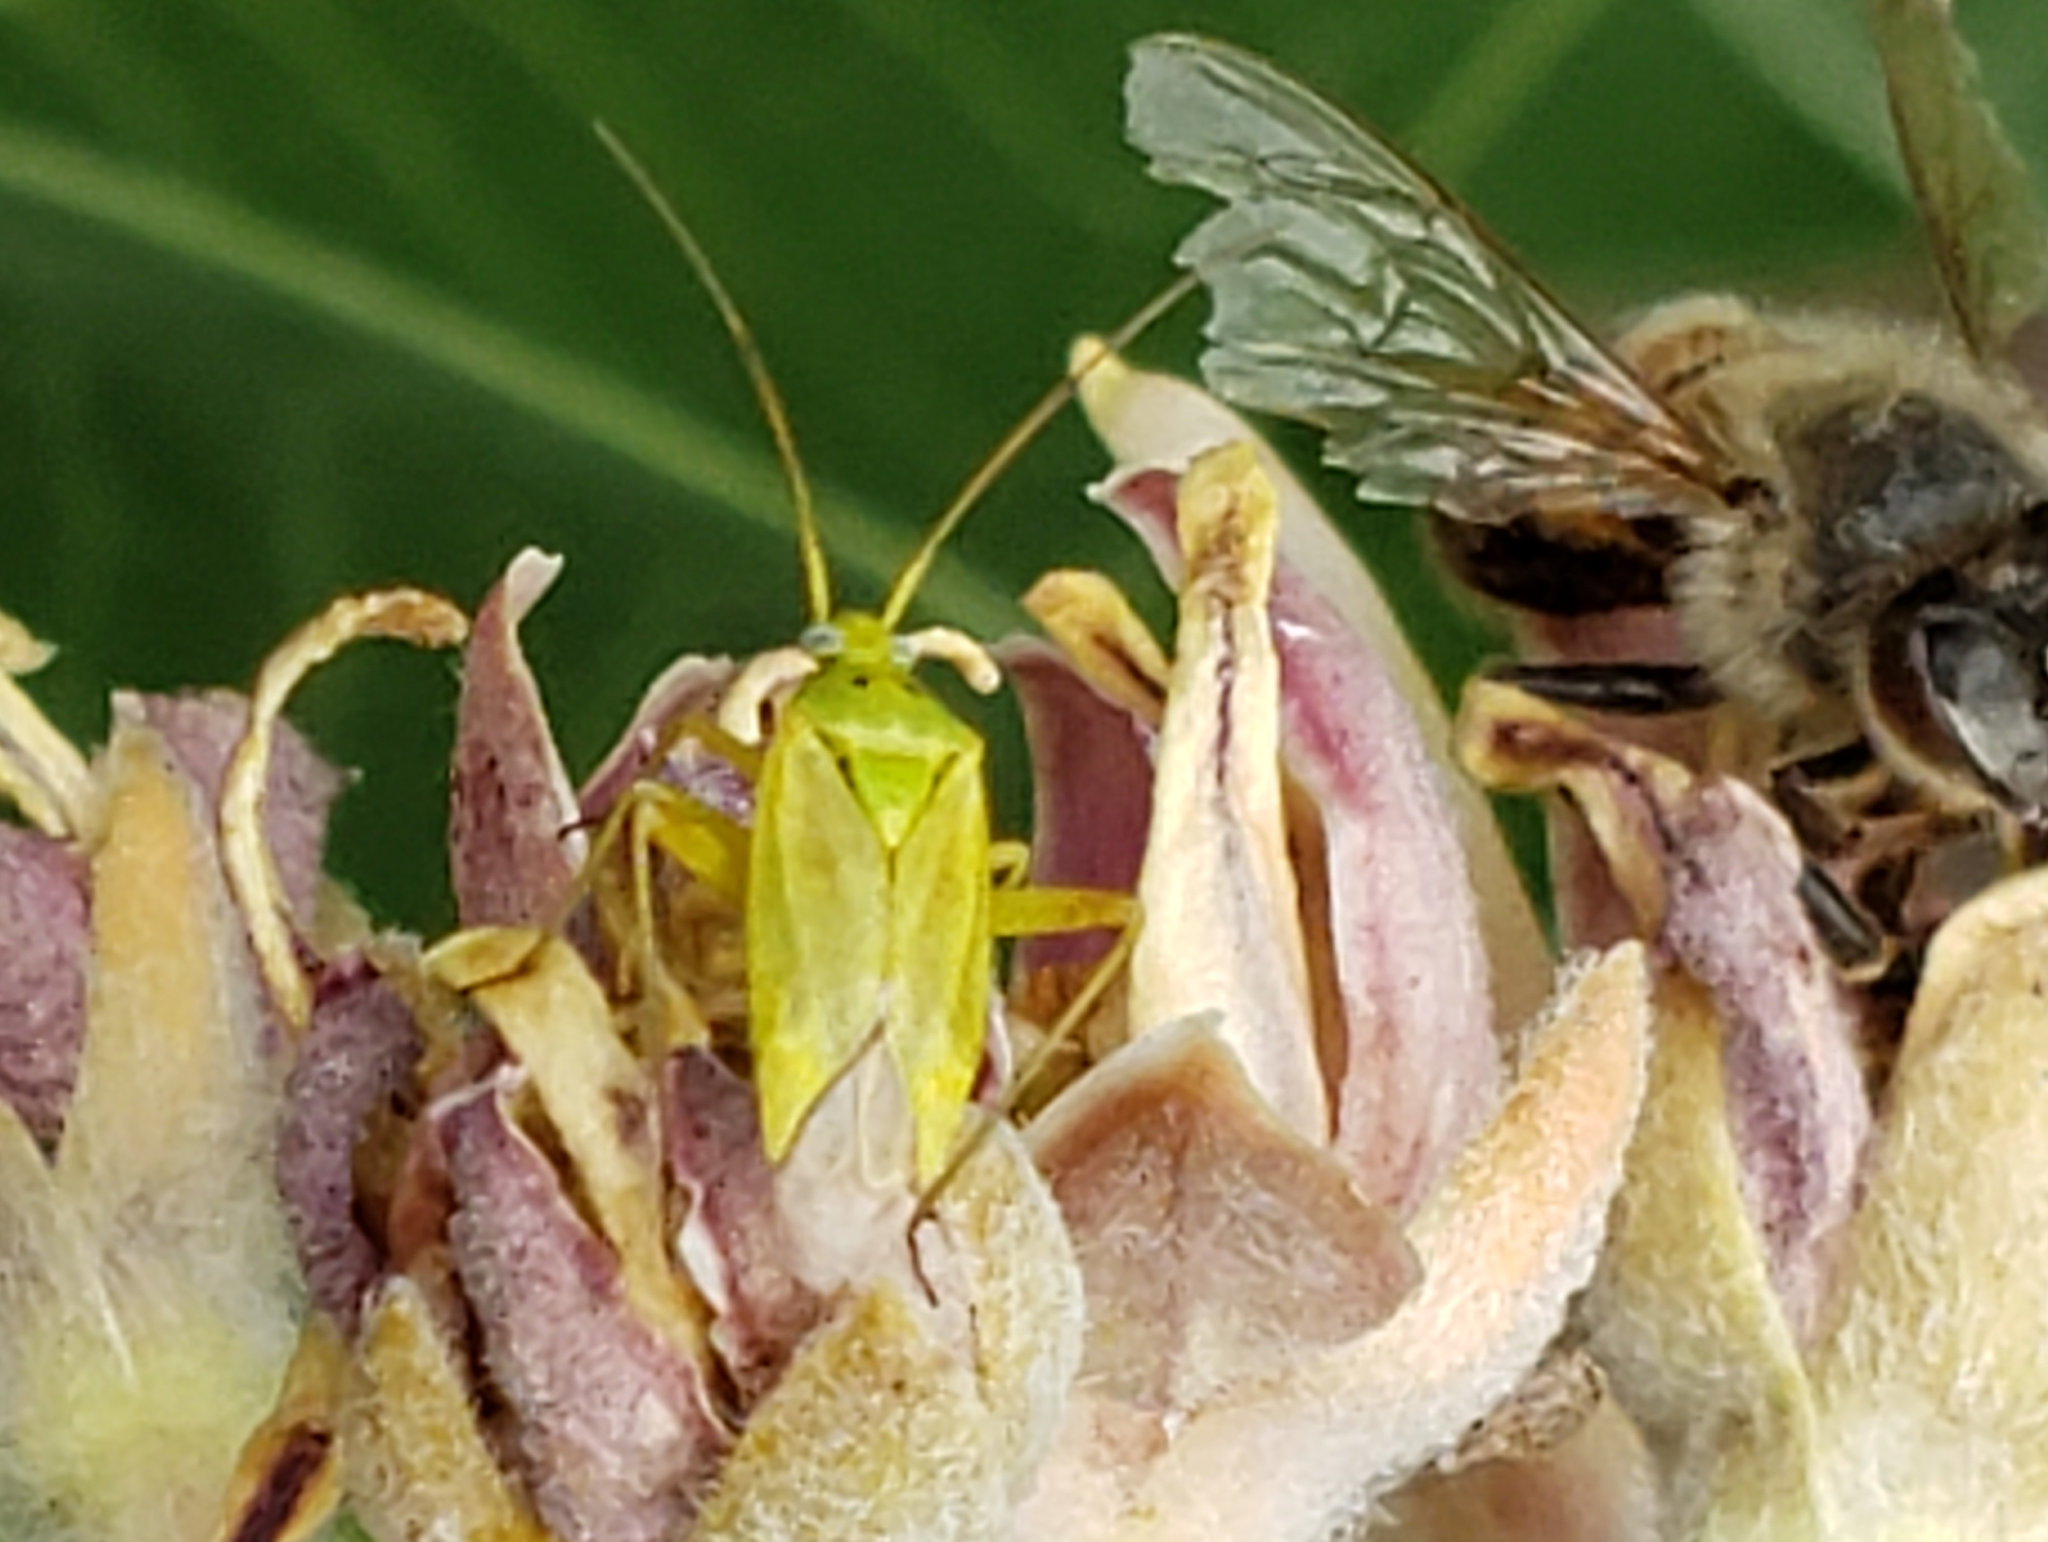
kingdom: Animalia
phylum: Arthropoda
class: Insecta
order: Hemiptera
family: Miridae
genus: Closterotomus
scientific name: Closterotomus norvegicus
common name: Plant bug
